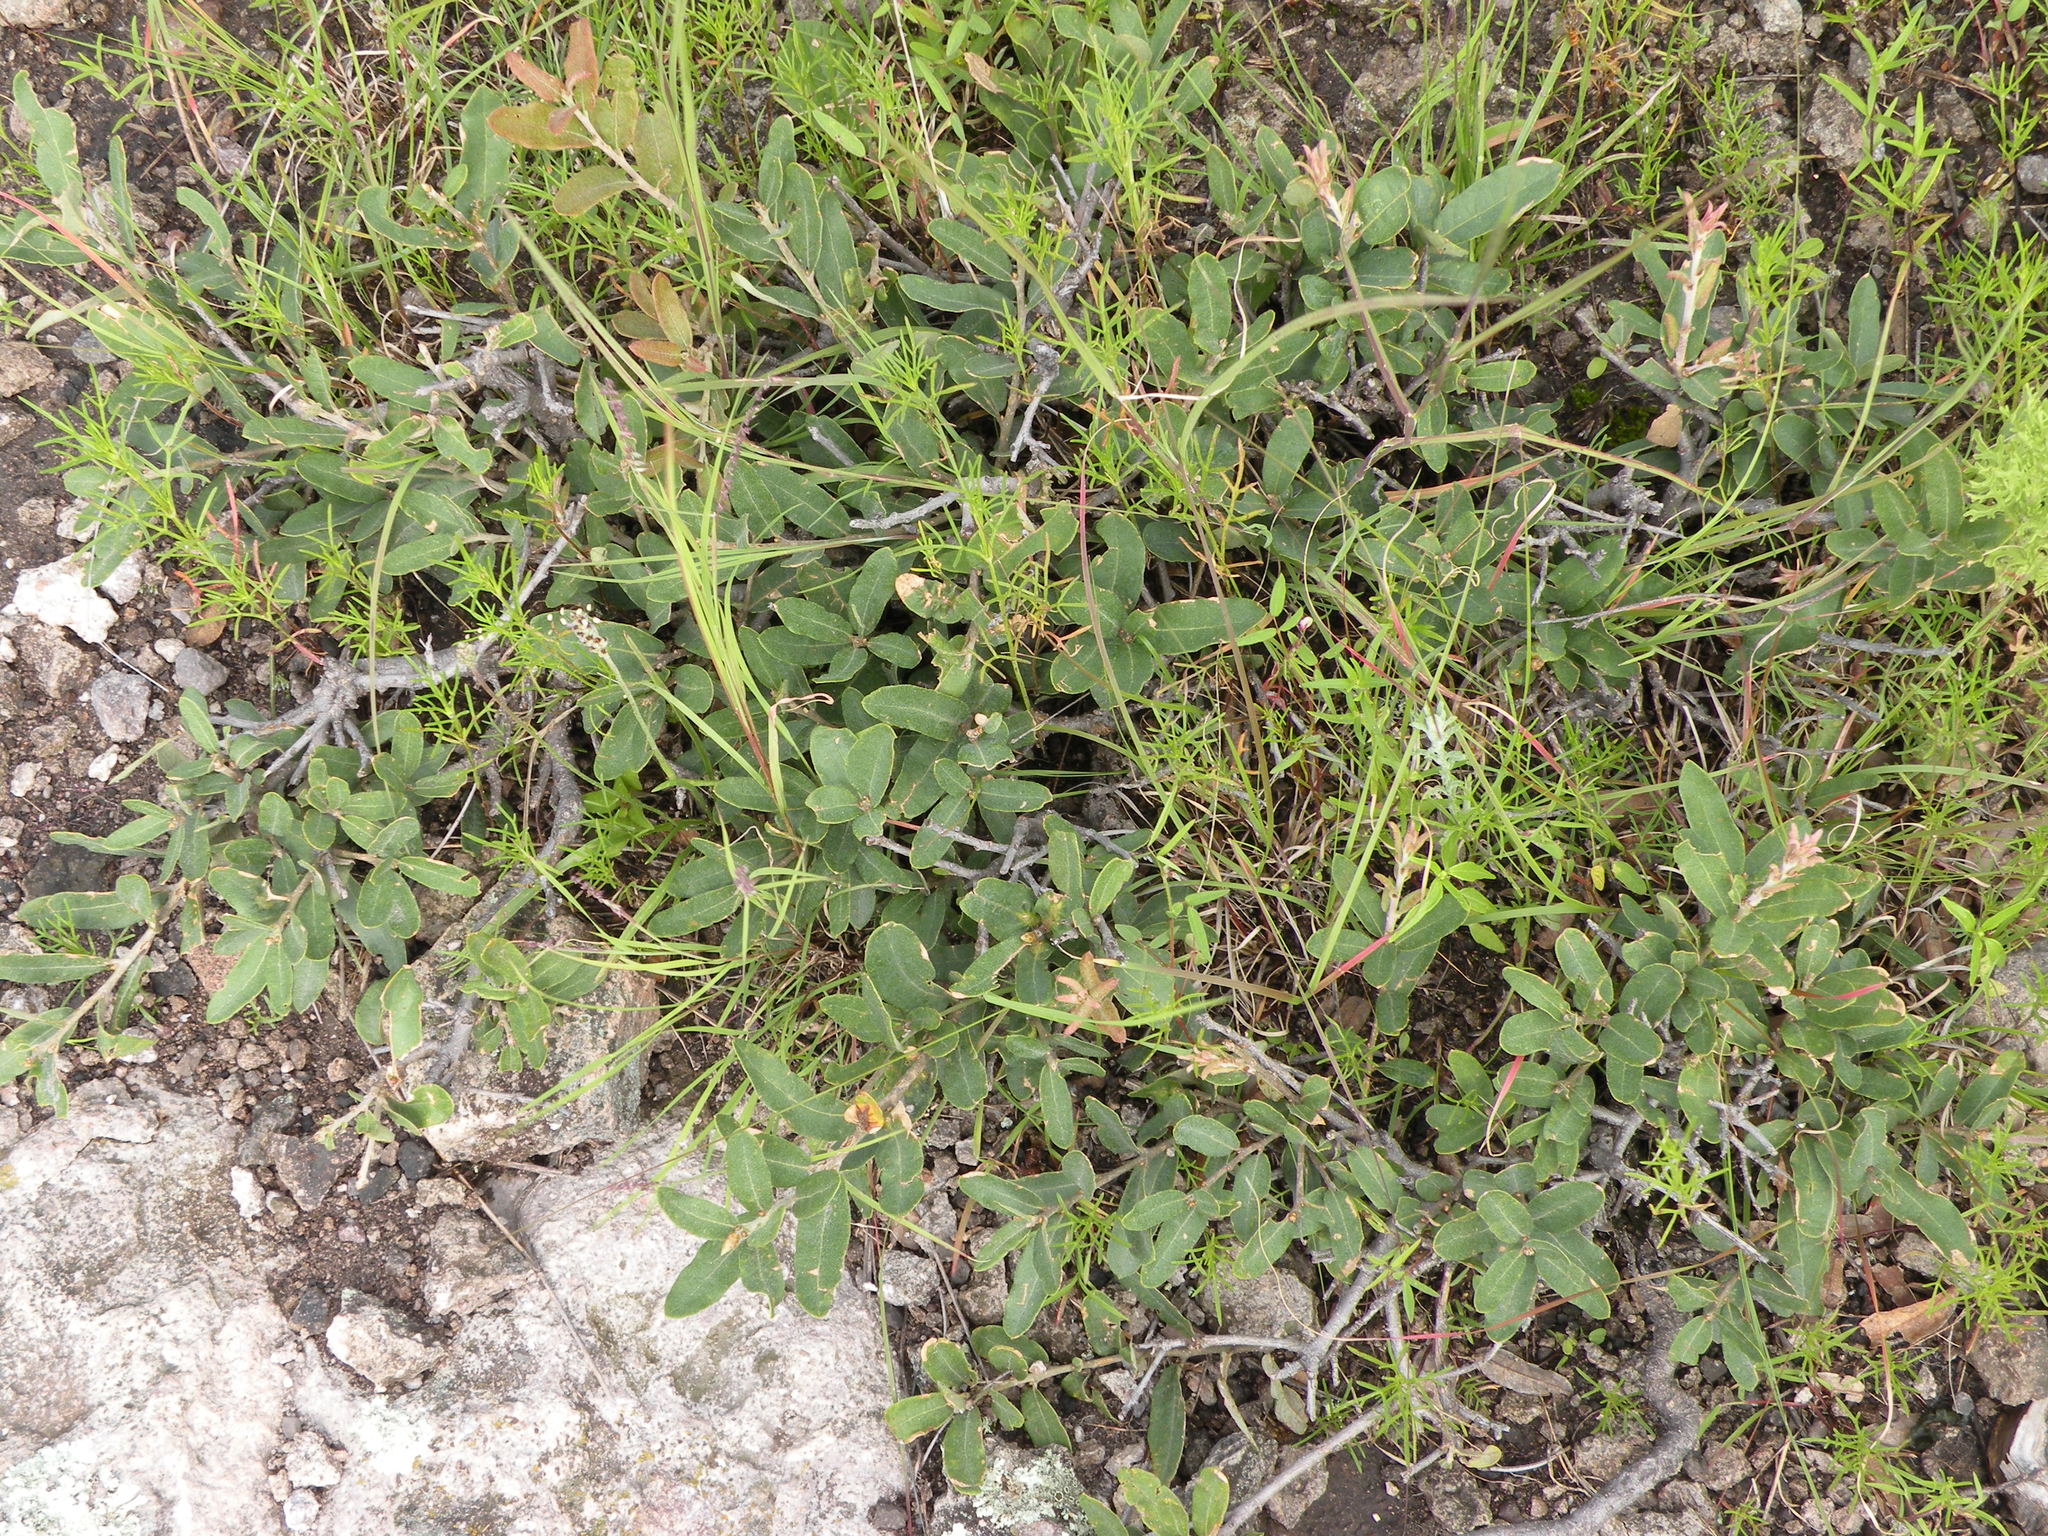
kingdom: Plantae
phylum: Tracheophyta
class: Magnoliopsida
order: Fagales
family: Fagaceae
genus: Quercus
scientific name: Quercus striatula
